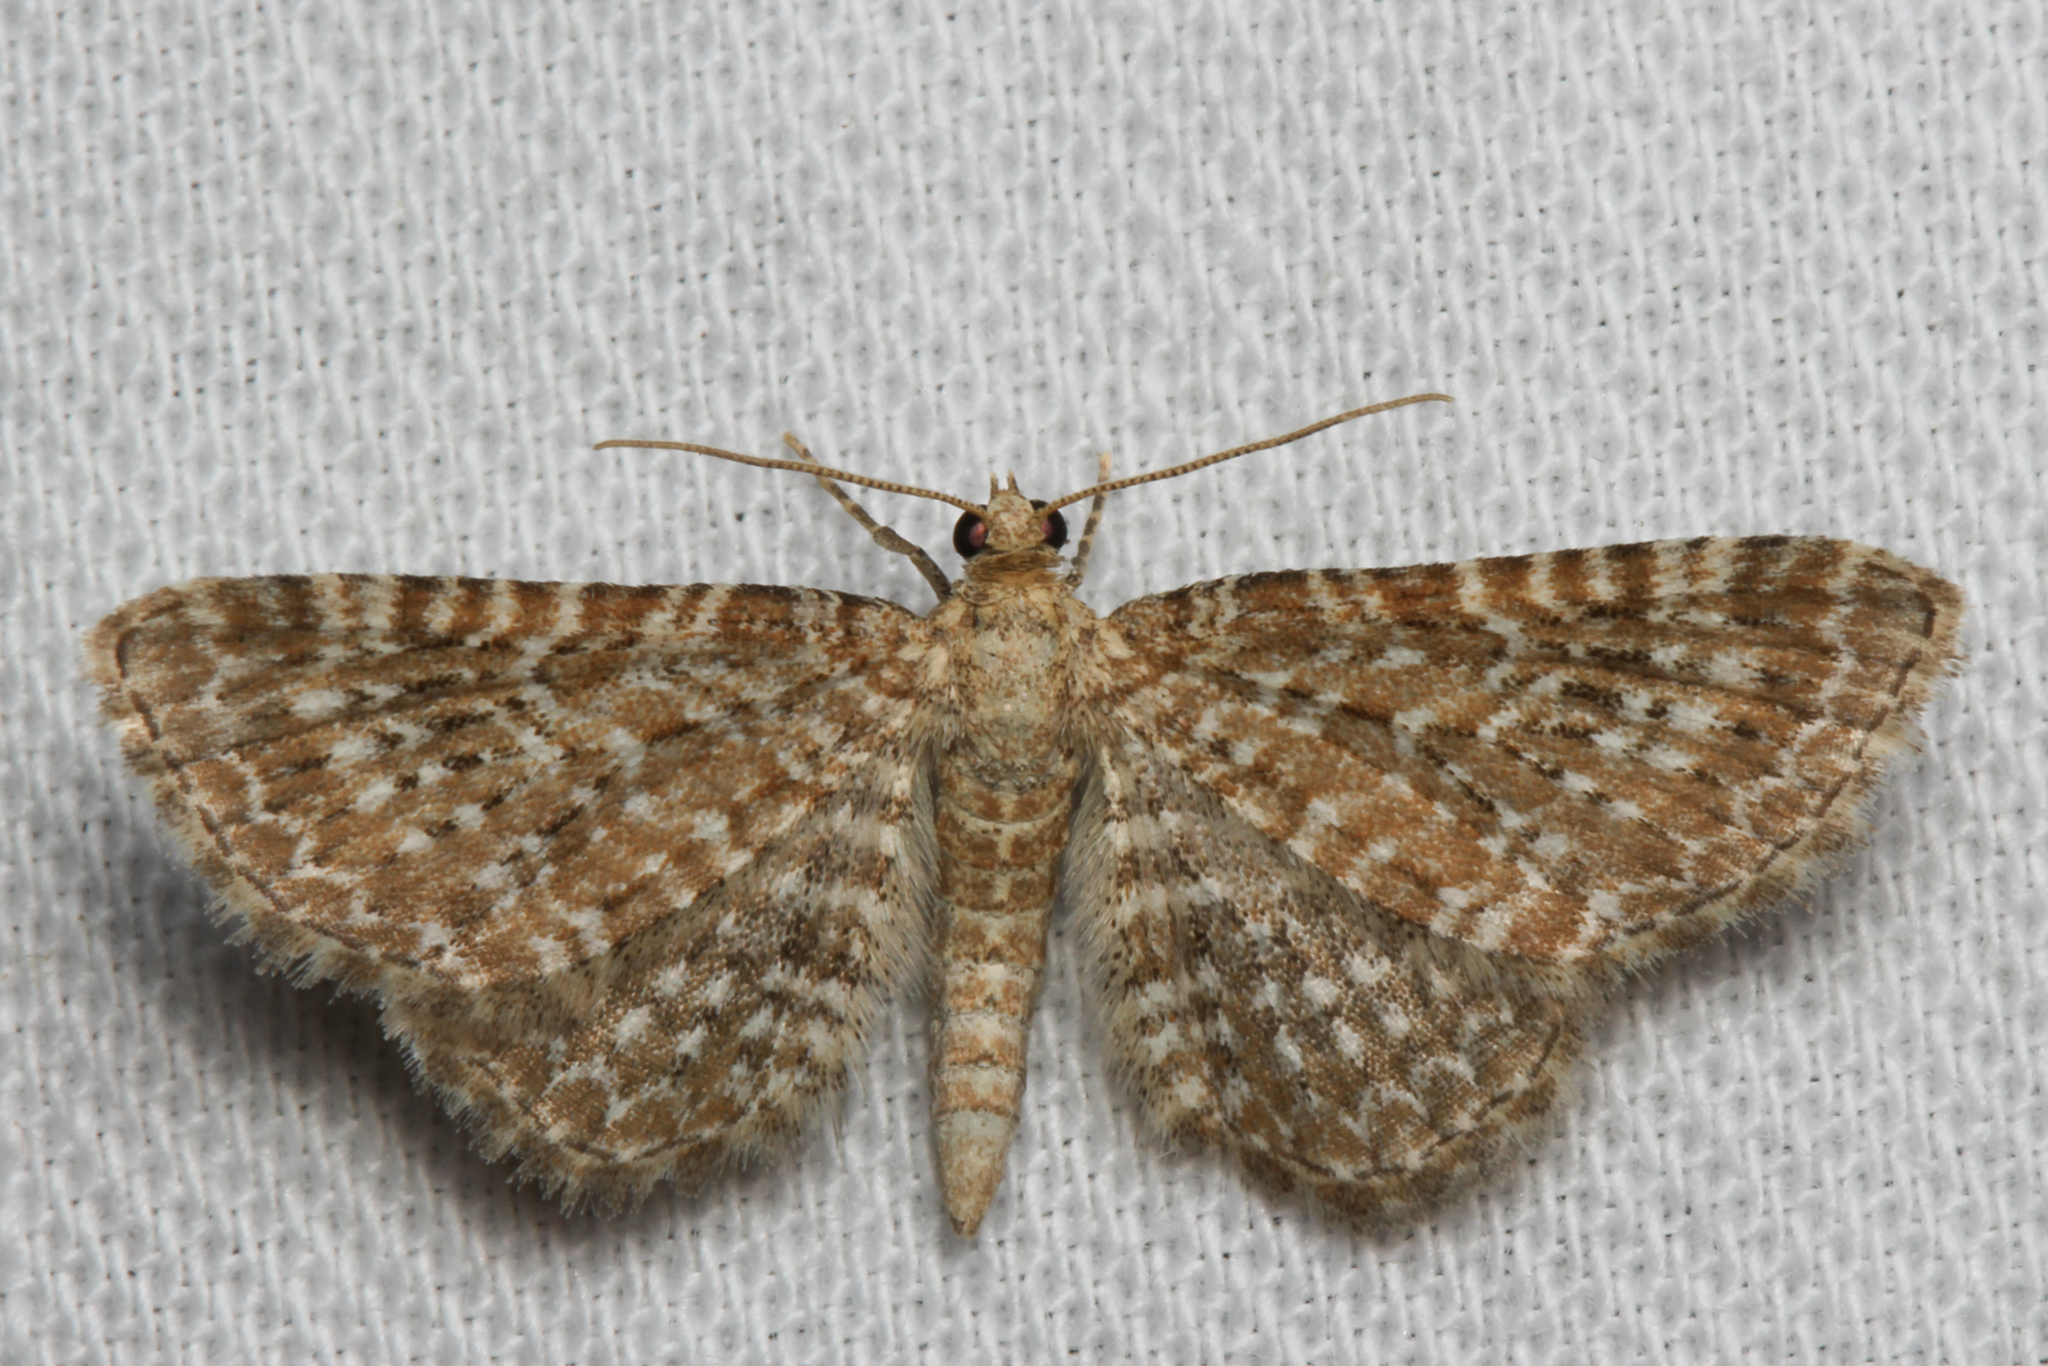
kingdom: Animalia
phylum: Arthropoda
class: Insecta
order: Lepidoptera
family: Geometridae
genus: Eupithecia
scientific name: Eupithecia spissilineata
